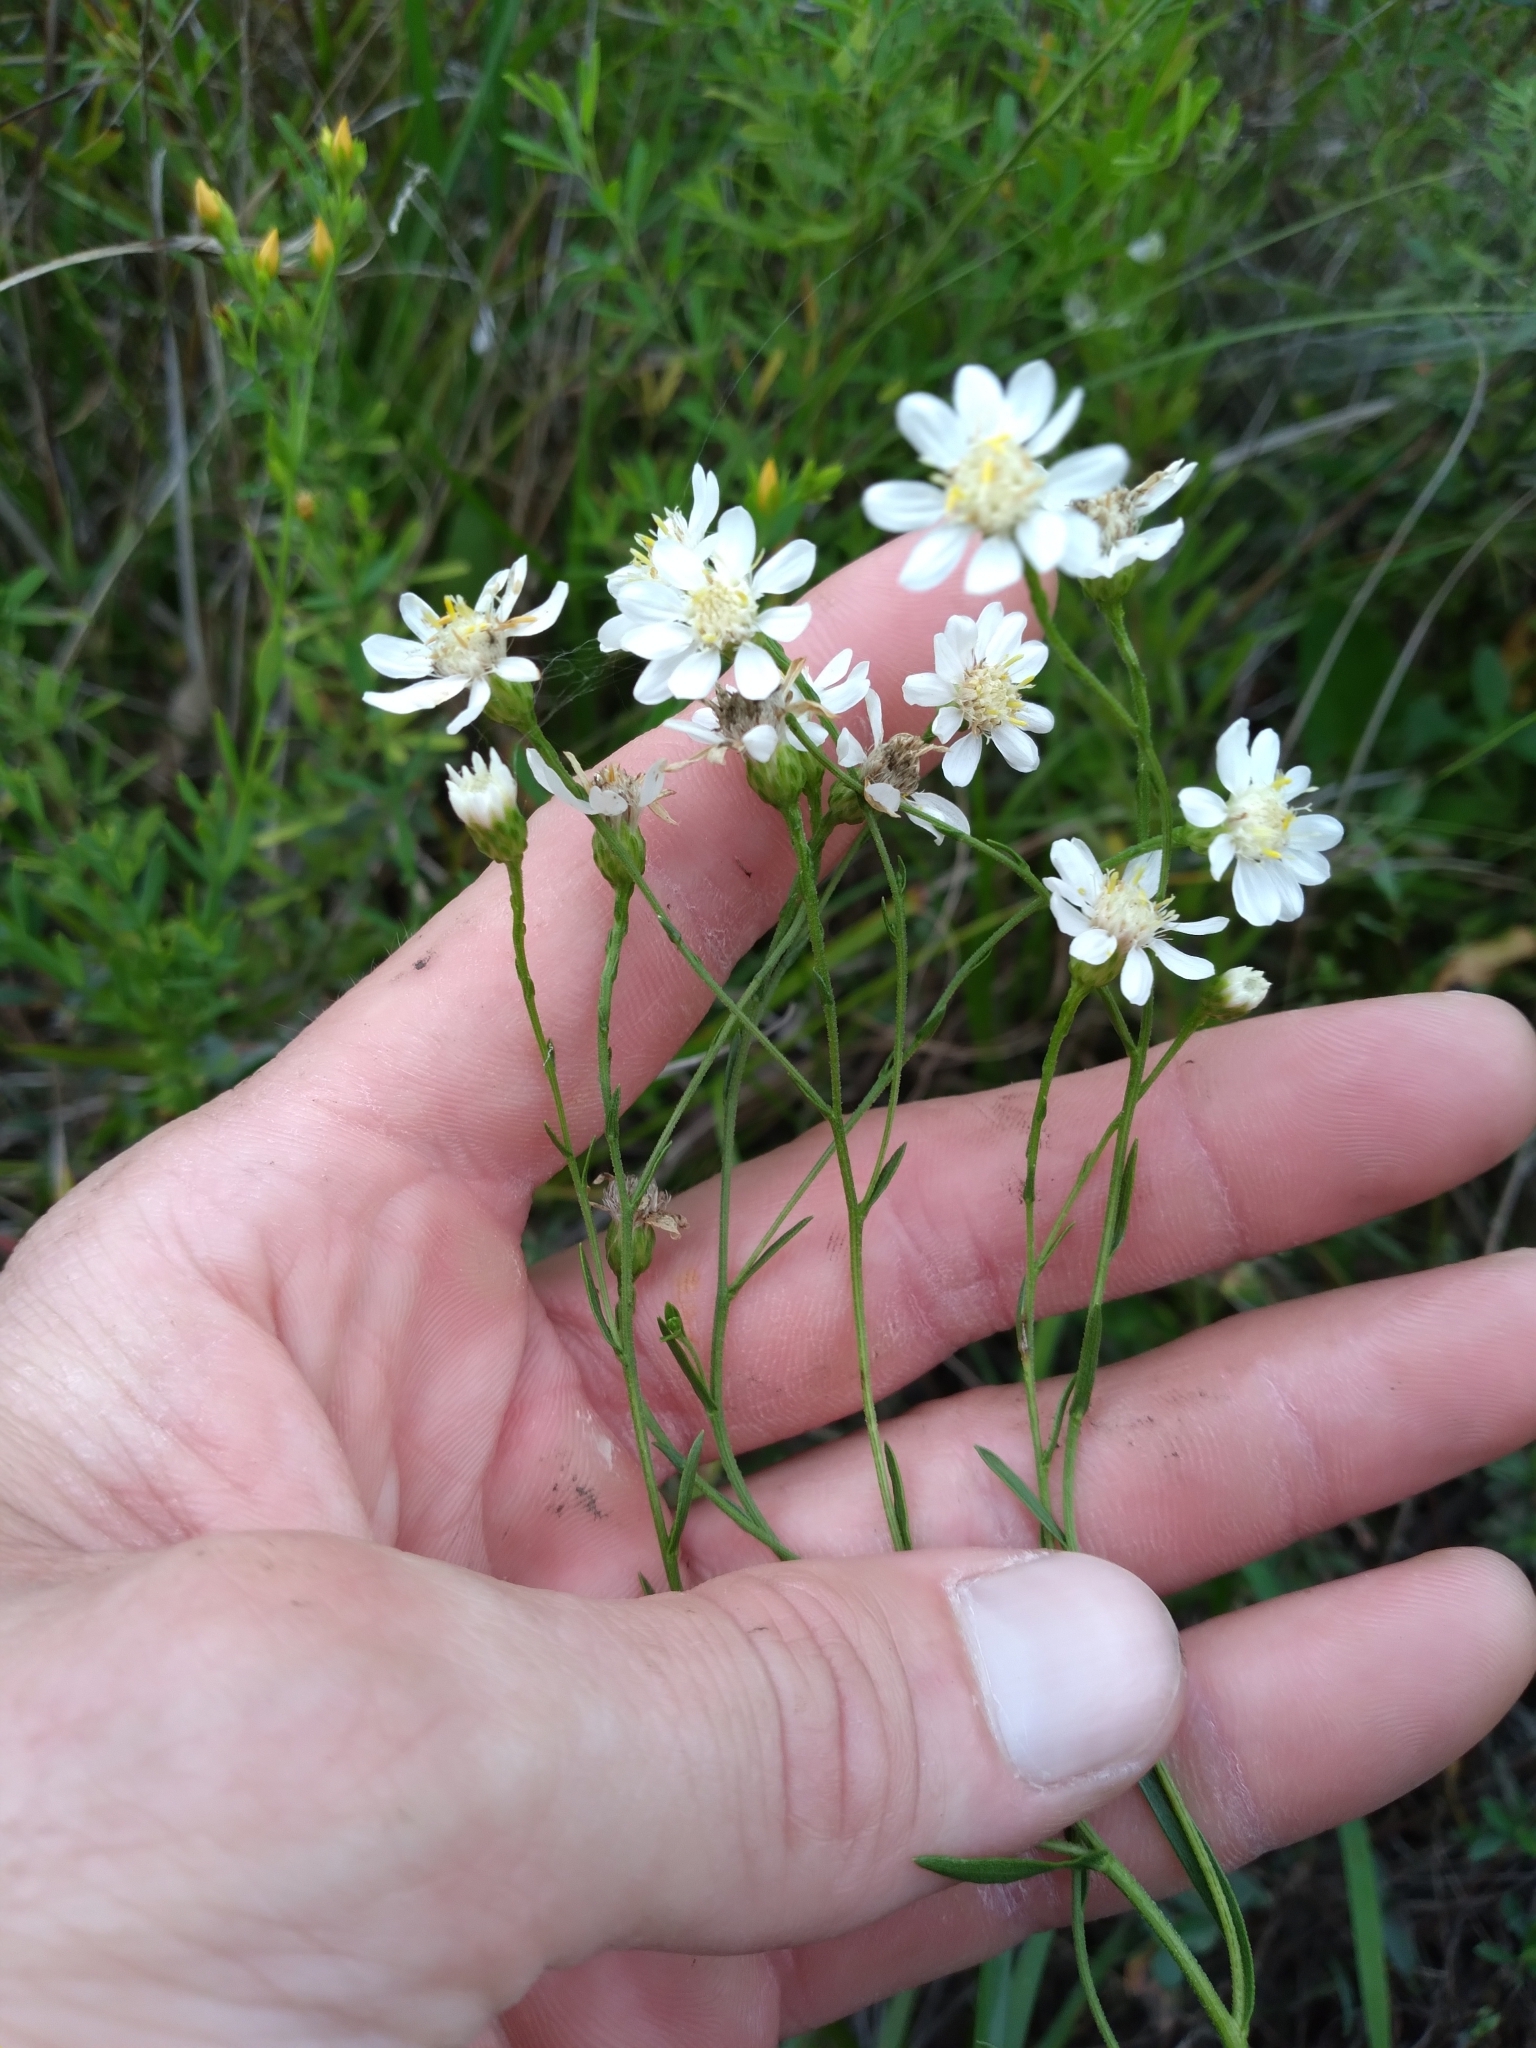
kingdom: Plantae
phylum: Tracheophyta
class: Magnoliopsida
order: Asterales
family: Asteraceae
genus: Solidago
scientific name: Solidago ptarmicoides
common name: White flat-top goldenrod
